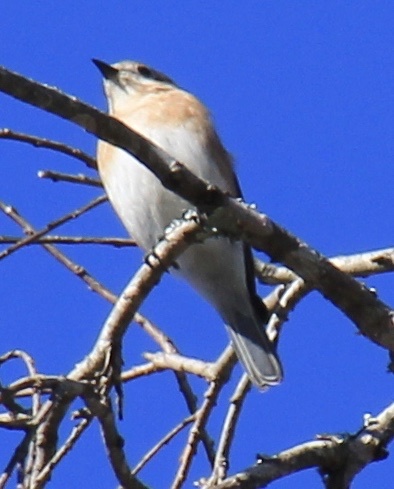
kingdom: Animalia
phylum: Chordata
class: Aves
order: Passeriformes
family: Turdidae
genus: Sialia
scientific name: Sialia sialis
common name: Eastern bluebird
